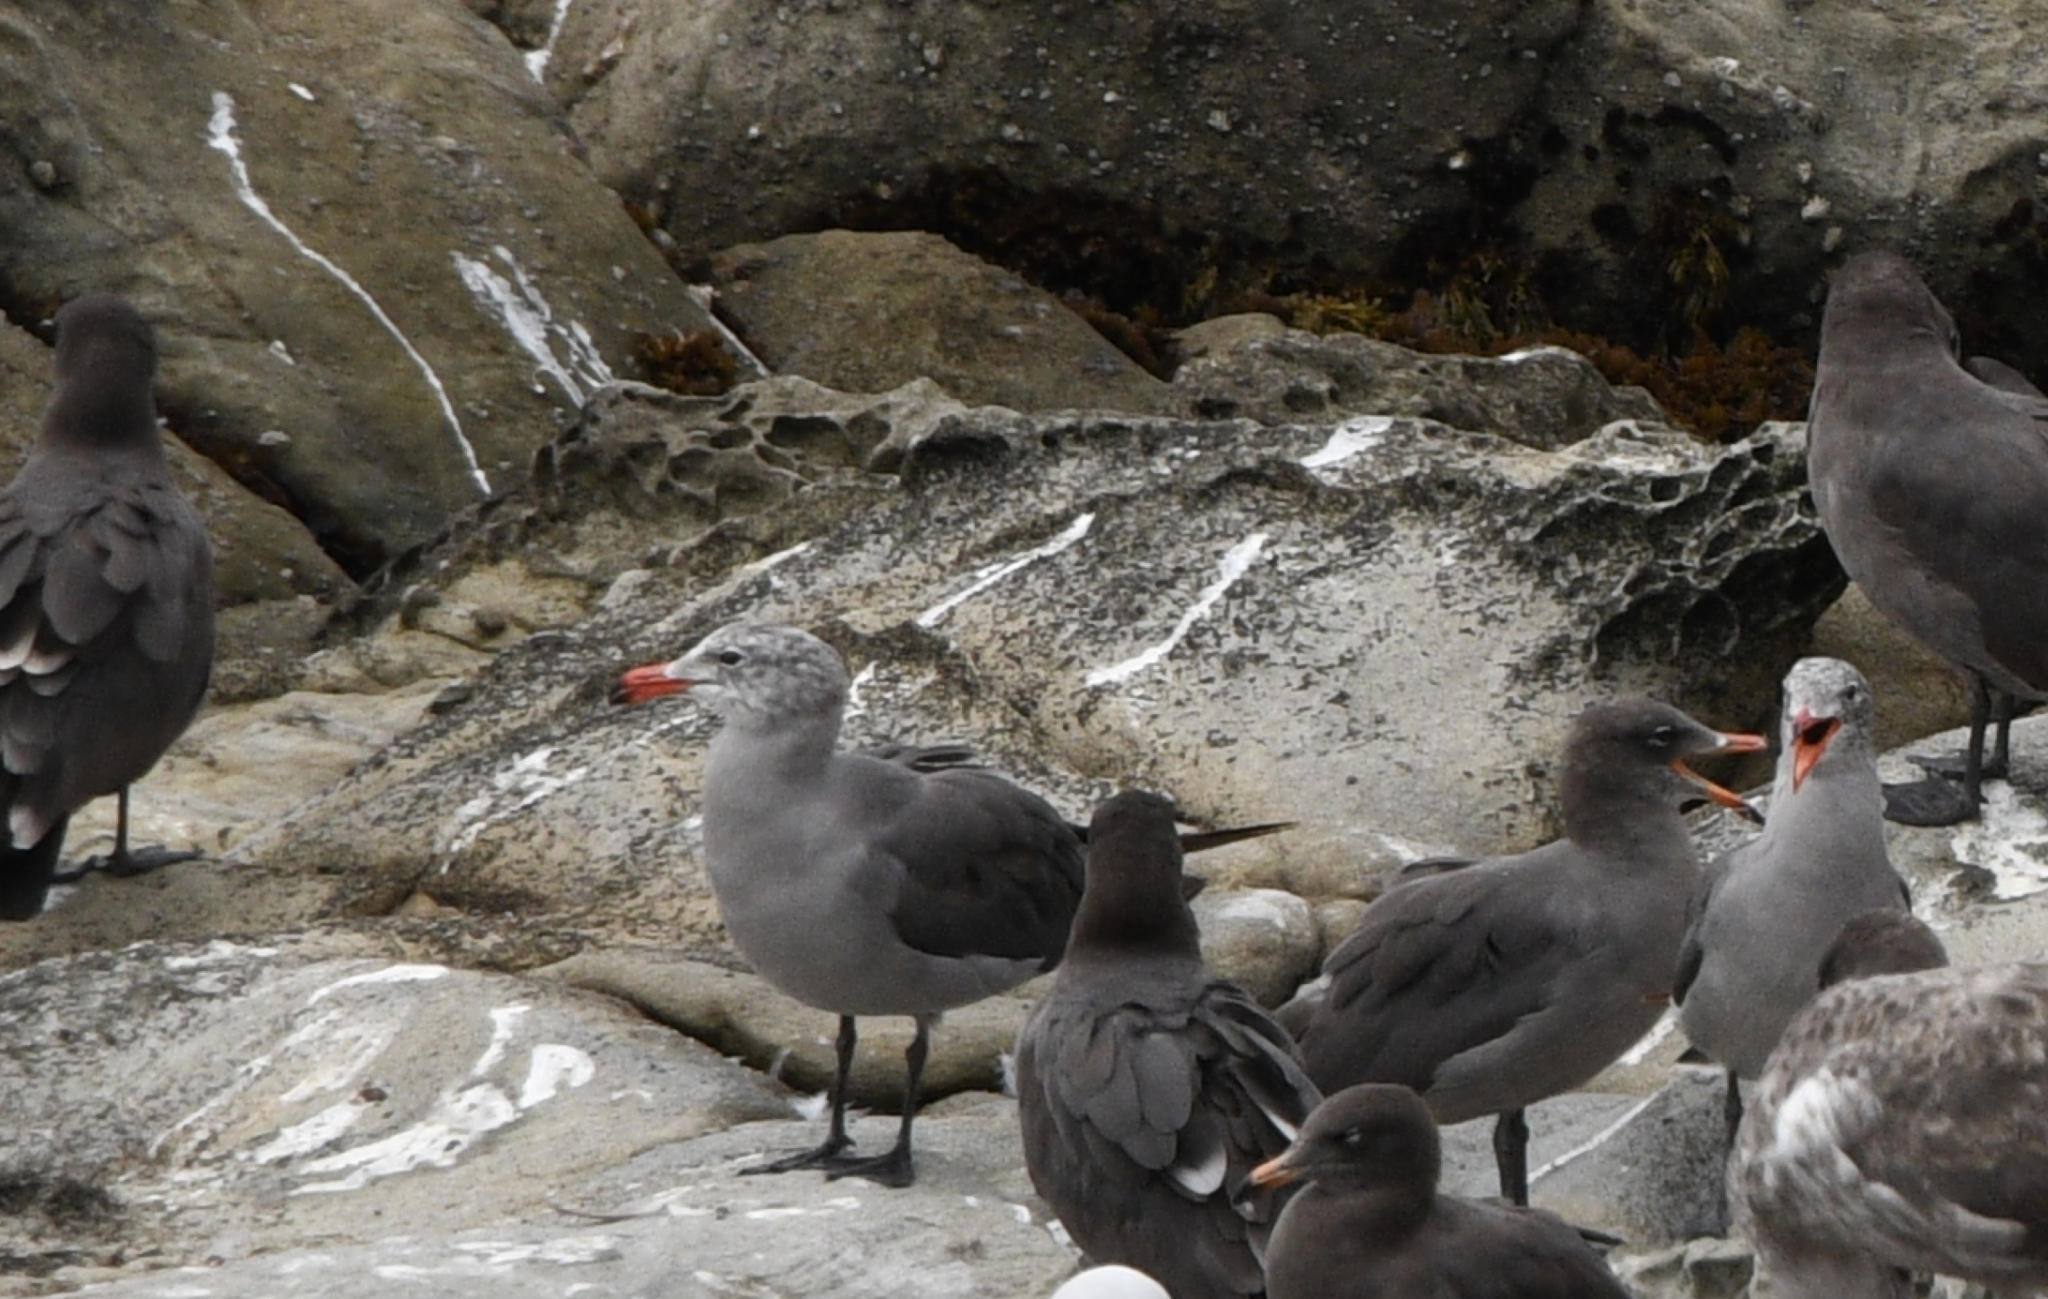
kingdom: Animalia
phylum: Chordata
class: Aves
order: Charadriiformes
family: Laridae
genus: Larus
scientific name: Larus heermanni
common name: Heermann's gull
